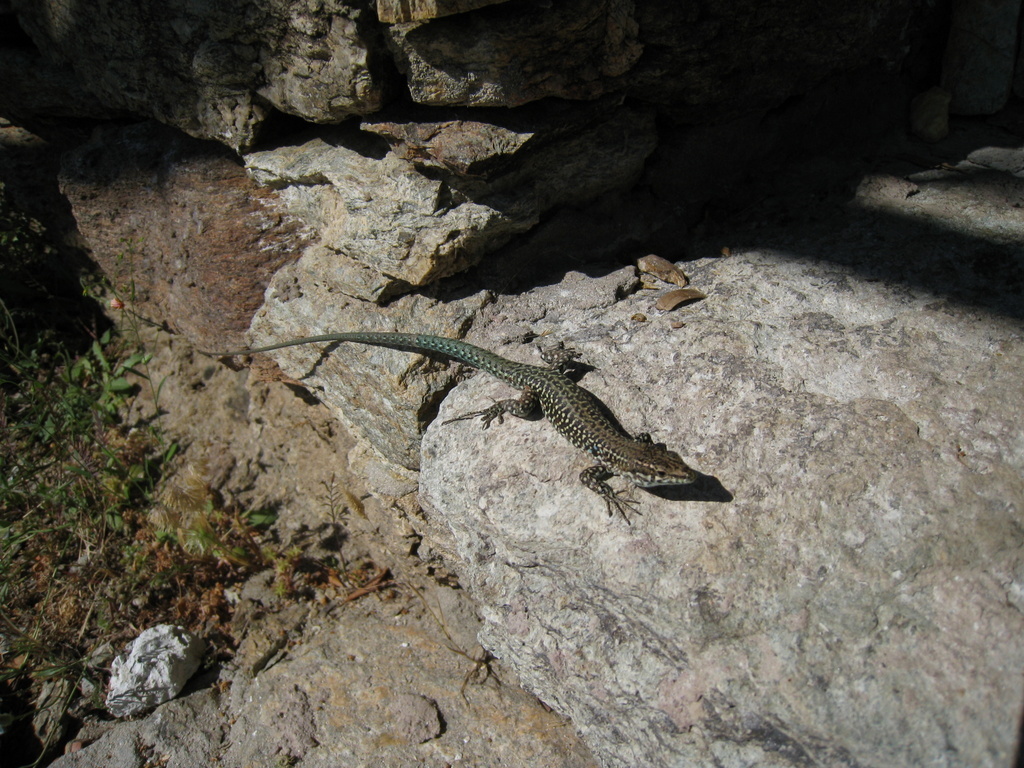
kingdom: Animalia
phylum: Chordata
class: Squamata
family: Lacertidae
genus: Podarcis
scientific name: Podarcis tiliguerta
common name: Tyrrhenian wall lizard
